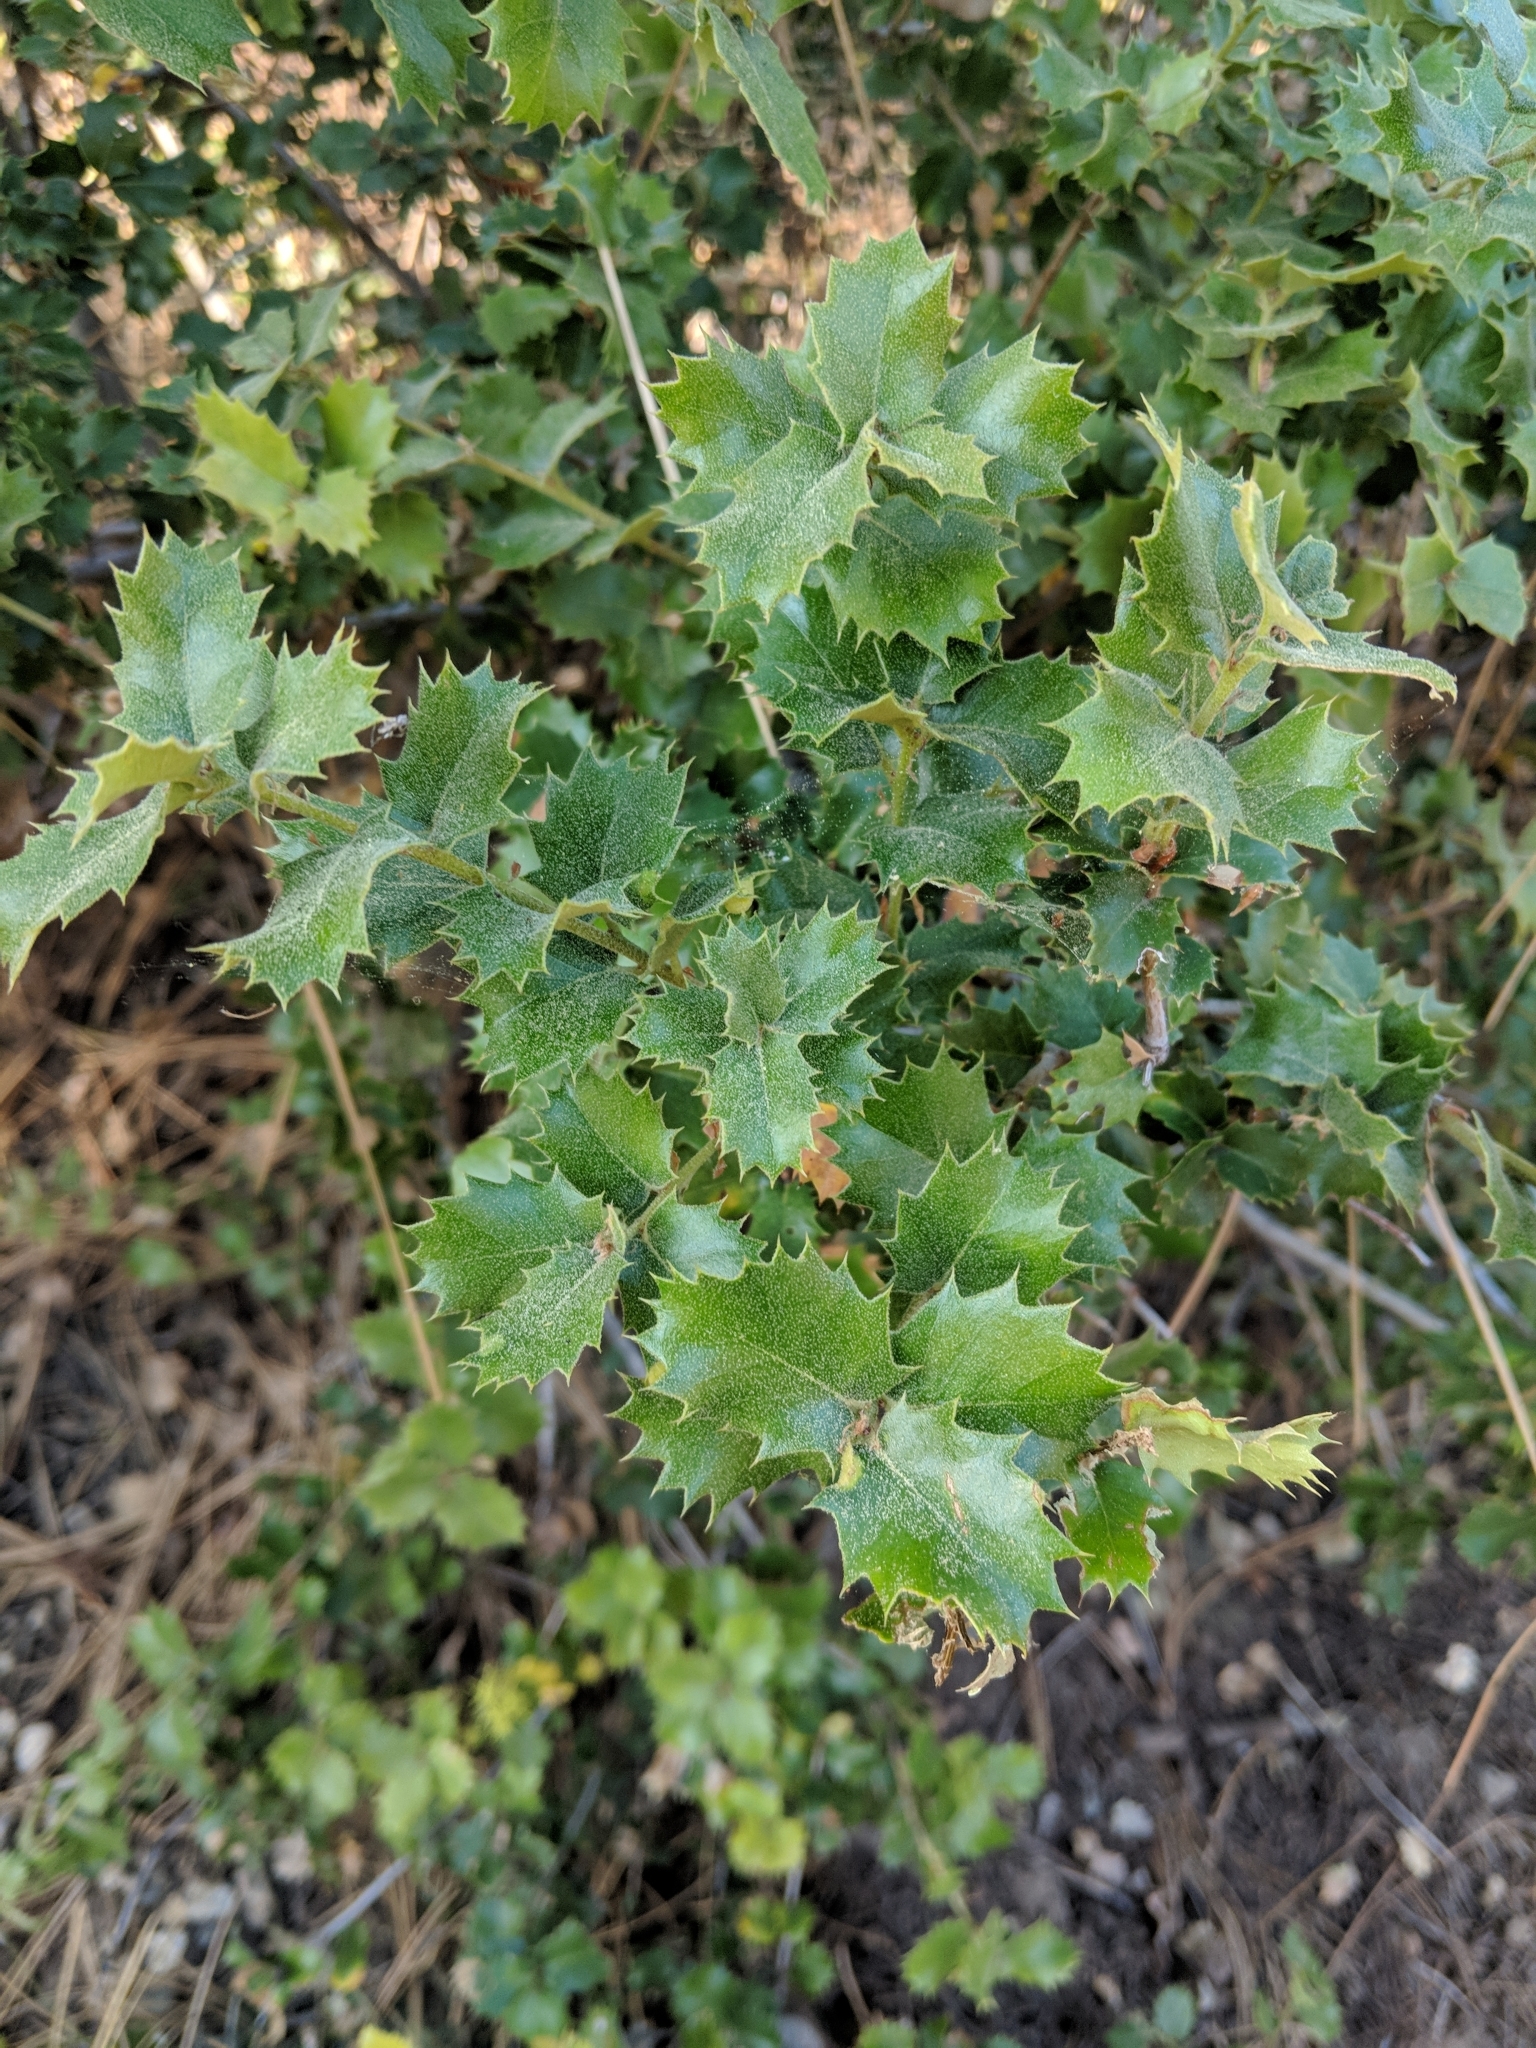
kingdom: Plantae
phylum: Tracheophyta
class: Magnoliopsida
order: Fagales
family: Fagaceae
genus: Quercus
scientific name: Quercus chrysolepis
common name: Canyon live oak
